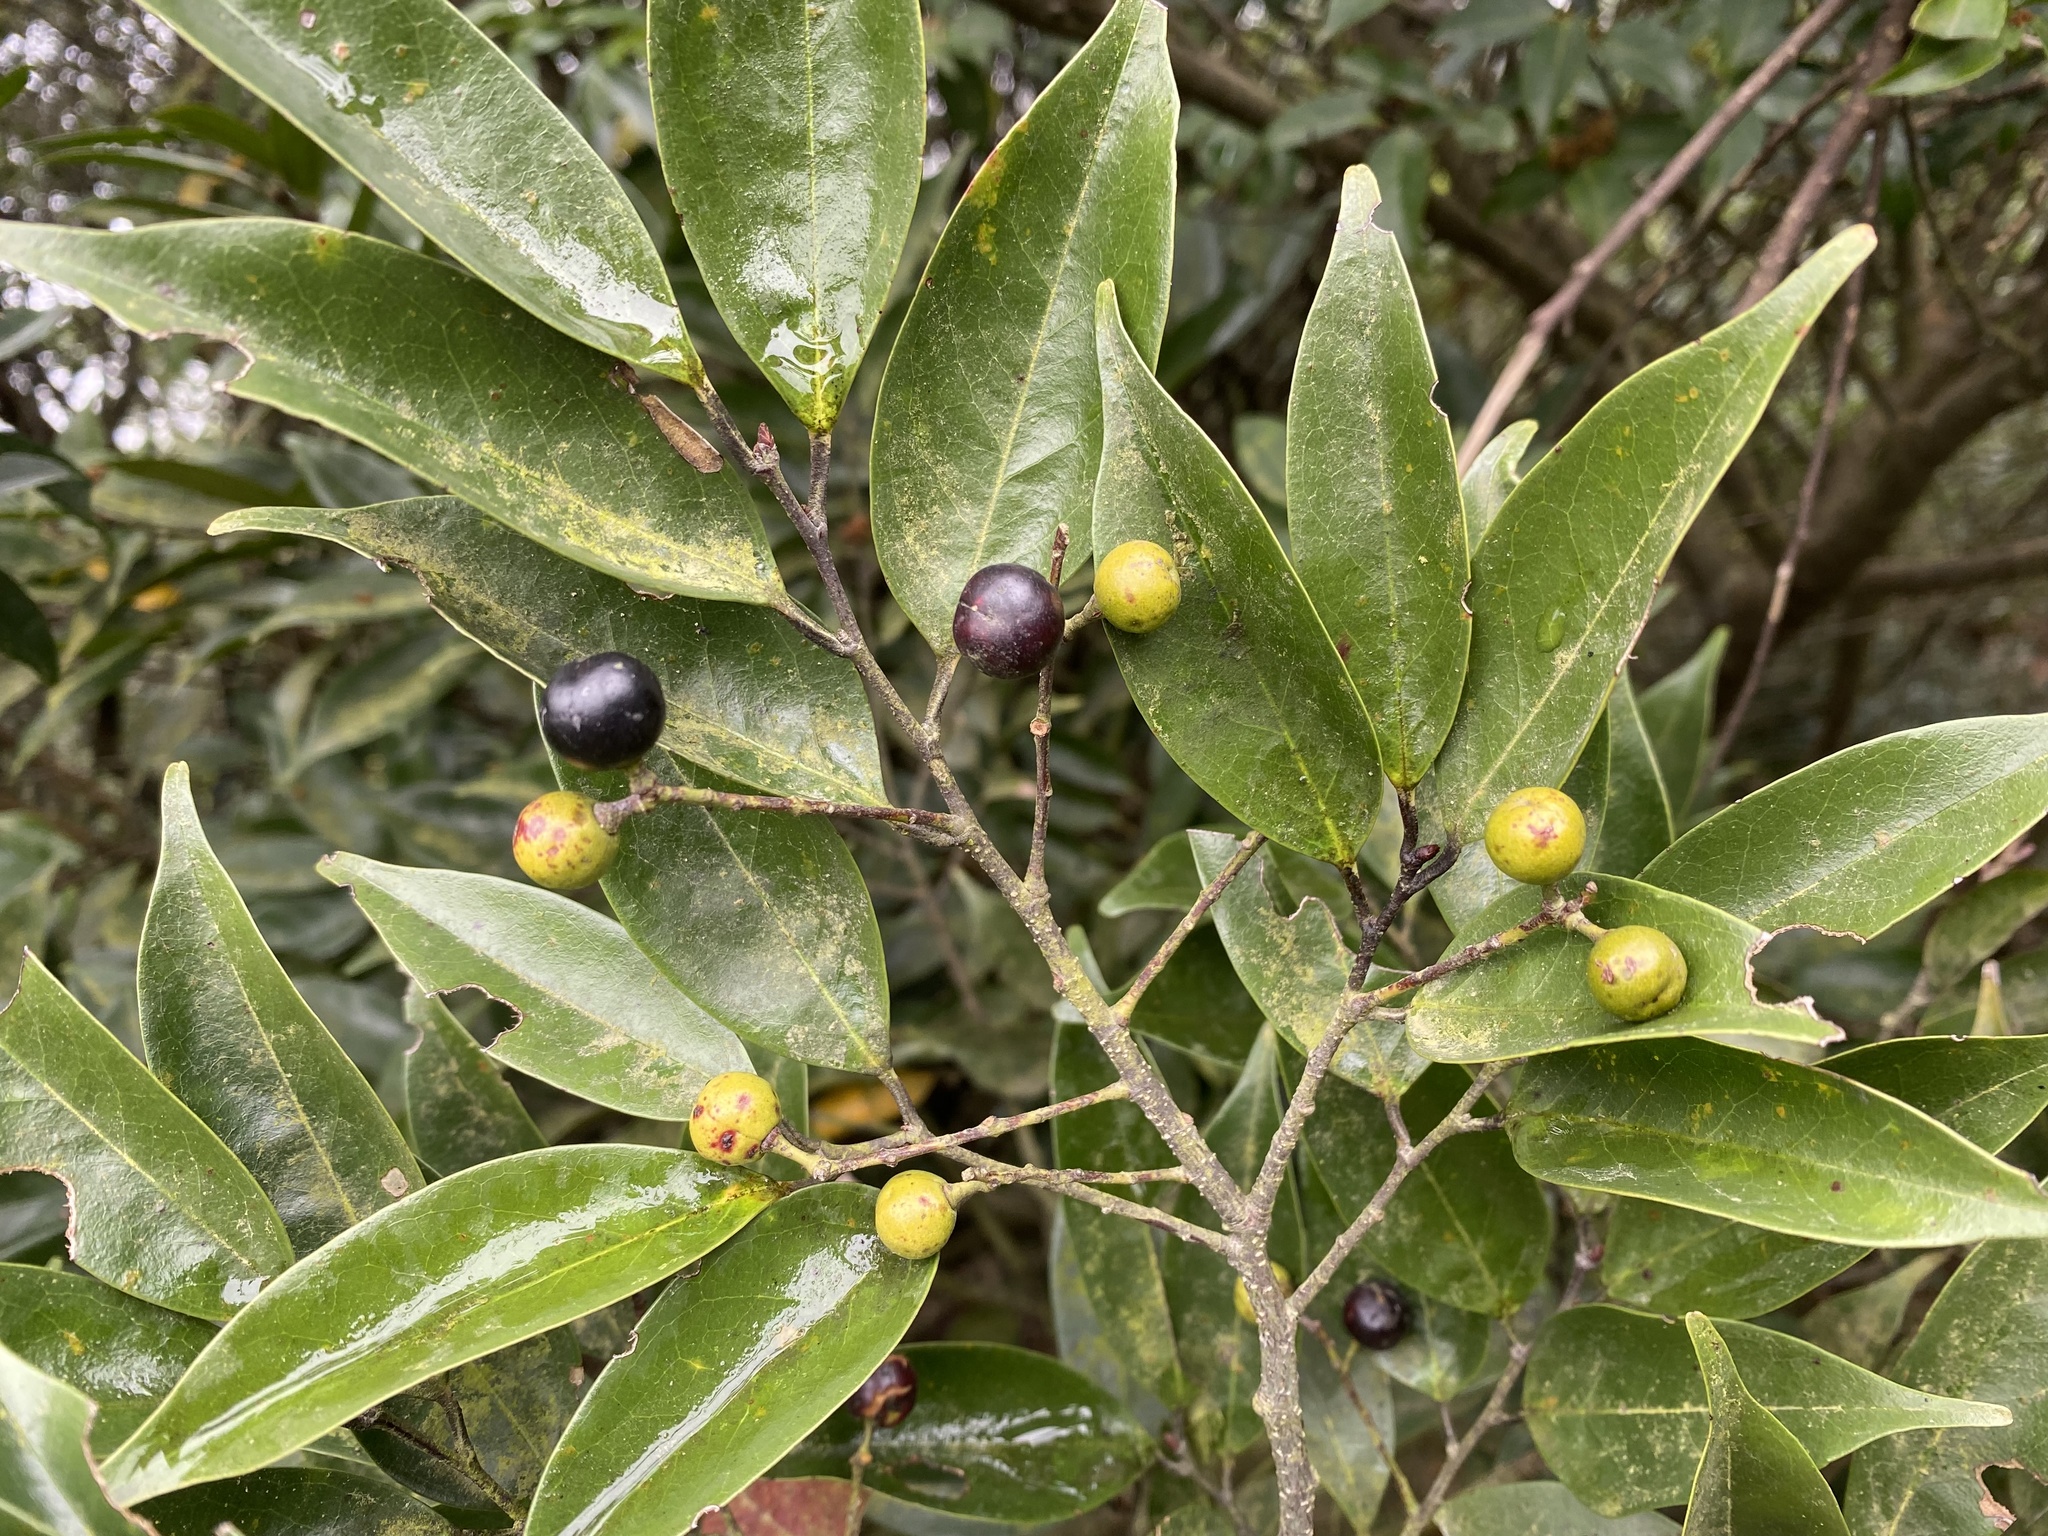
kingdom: Plantae
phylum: Tracheophyta
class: Magnoliopsida
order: Rosales
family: Rosaceae
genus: Prunus
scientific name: Prunus phaeosticta
